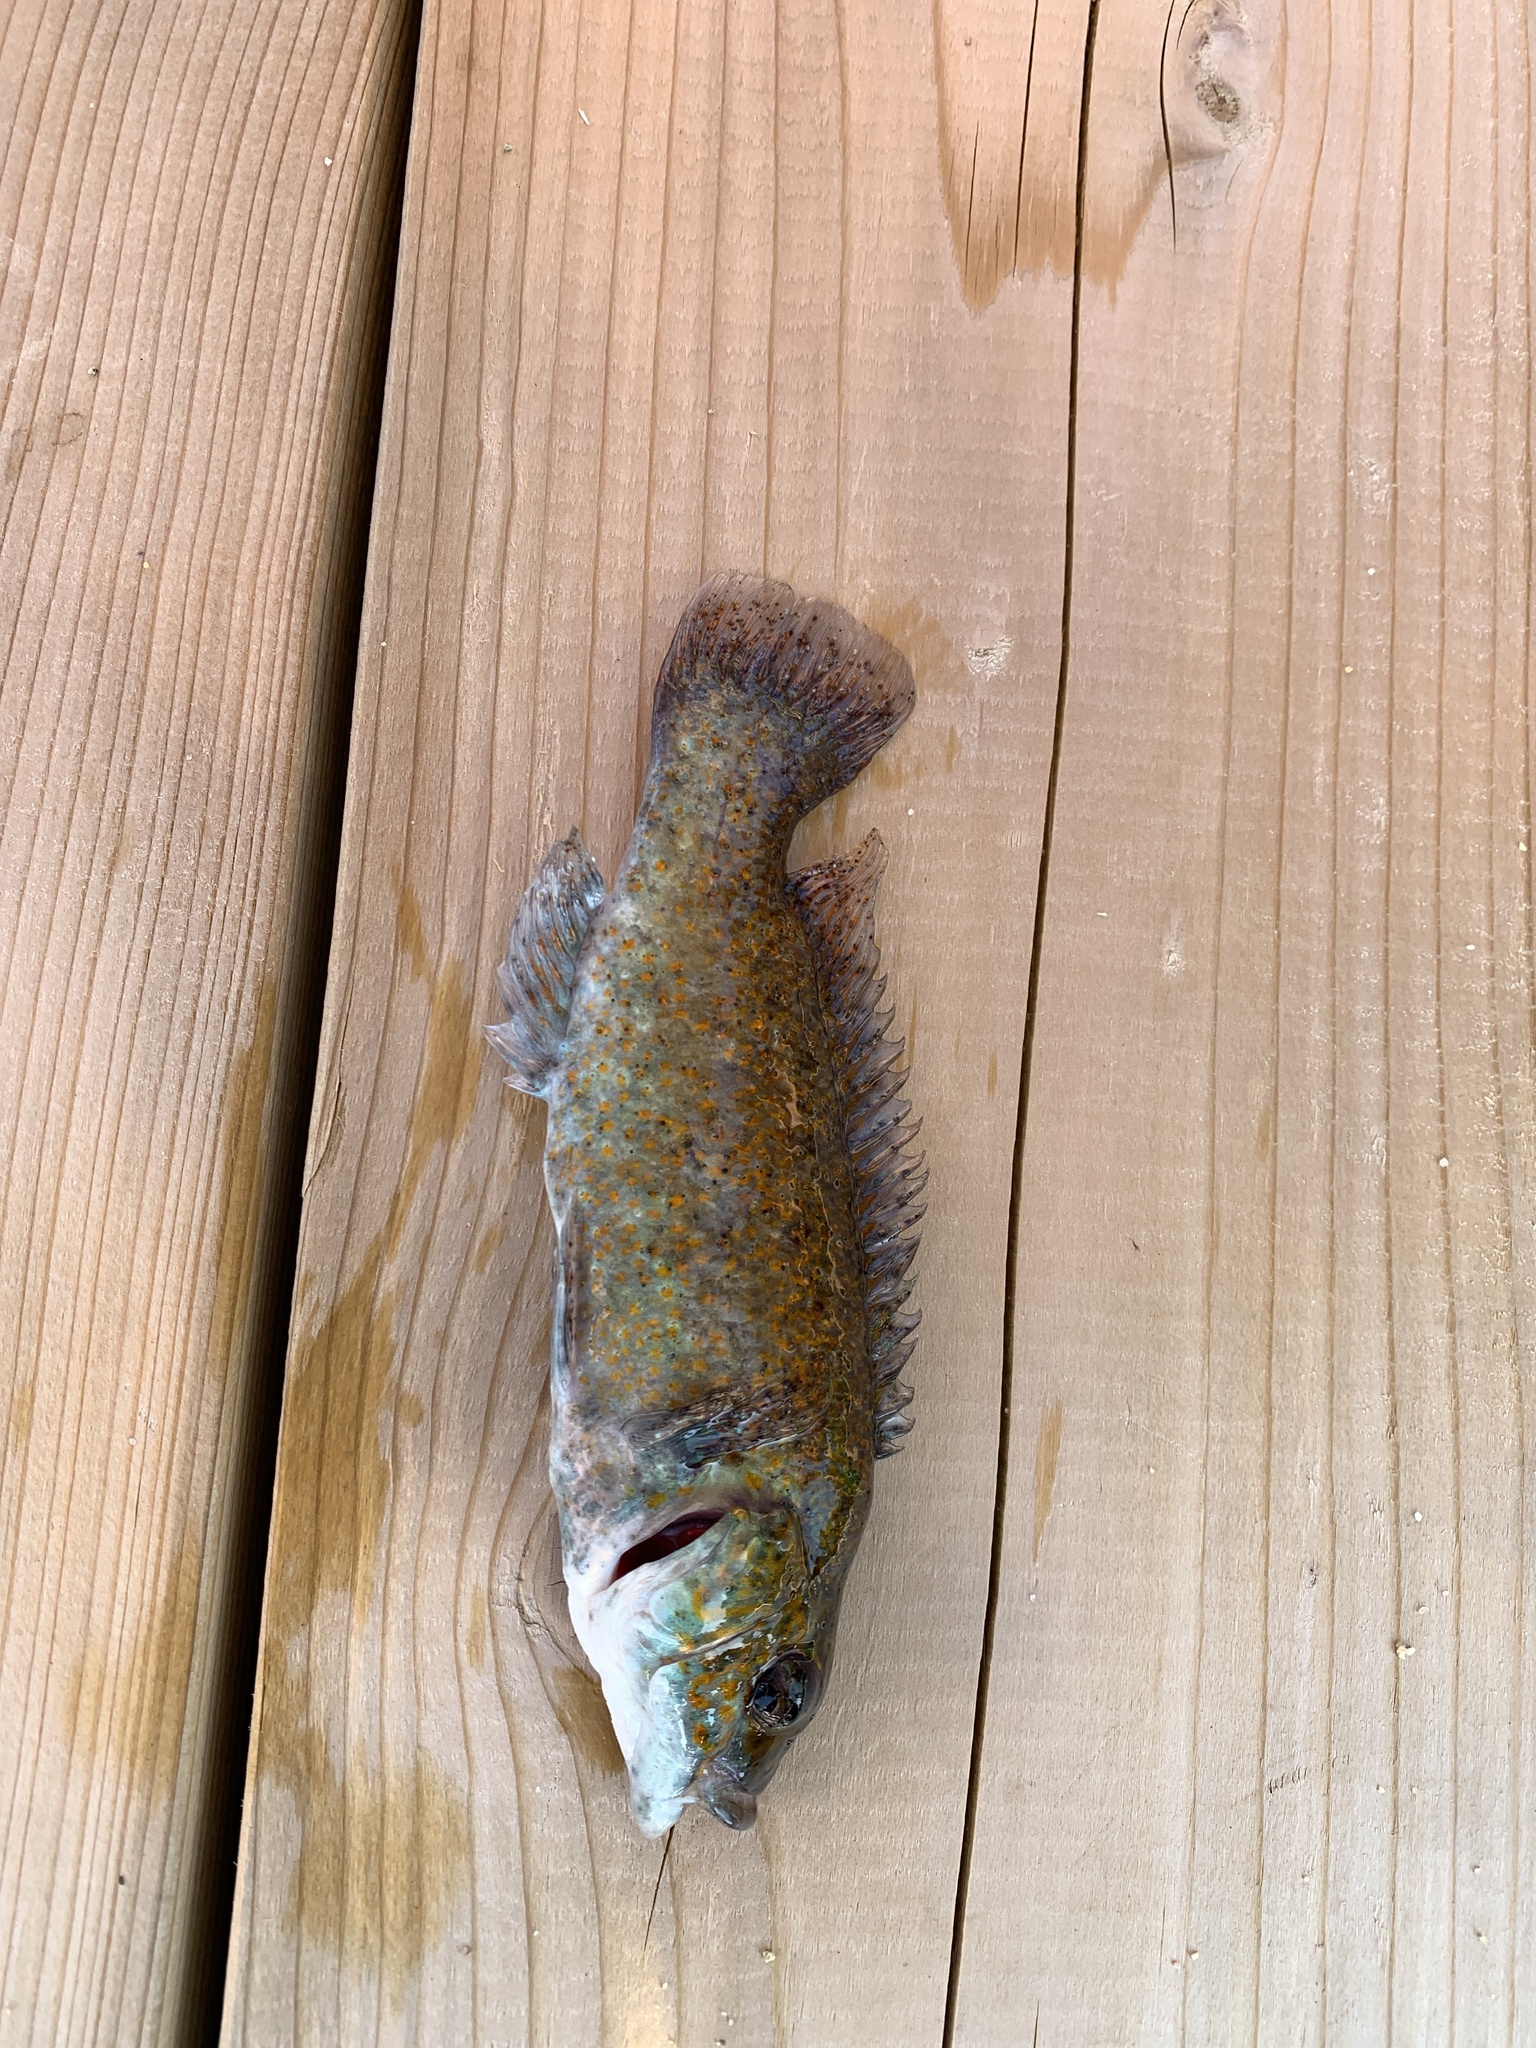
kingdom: Animalia
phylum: Chordata
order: Perciformes
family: Labridae
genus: Tautogolabrus
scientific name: Tautogolabrus adspersus
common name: Cunner
